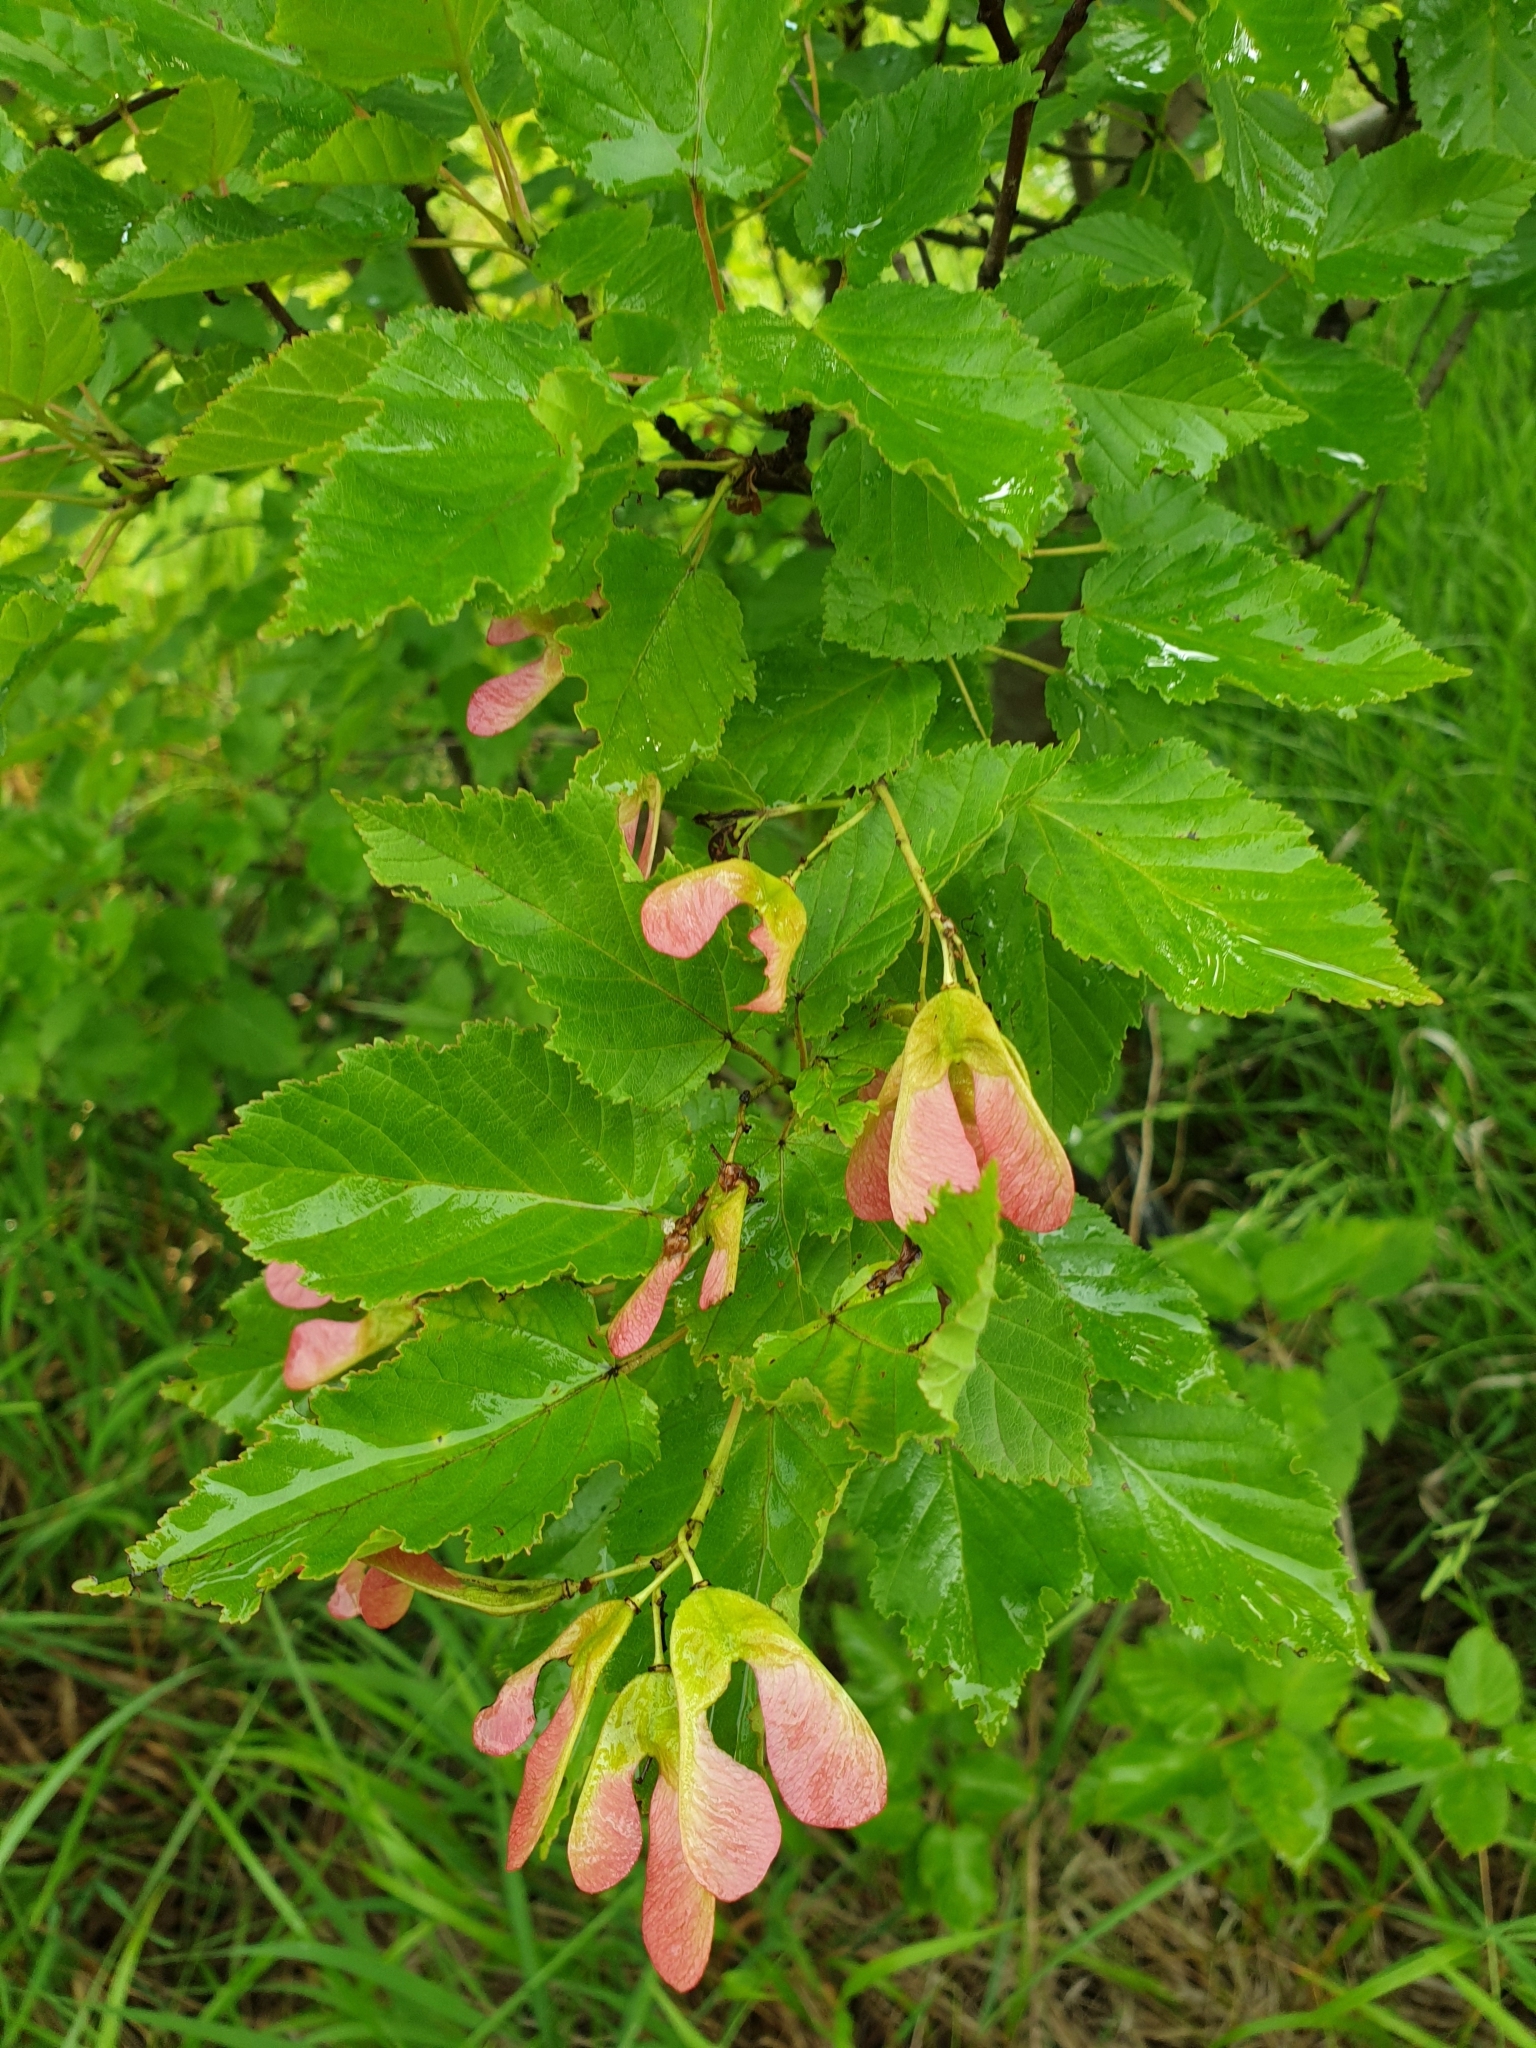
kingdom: Plantae
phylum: Tracheophyta
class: Magnoliopsida
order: Sapindales
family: Sapindaceae
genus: Acer
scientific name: Acer tataricum
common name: Tartar maple
